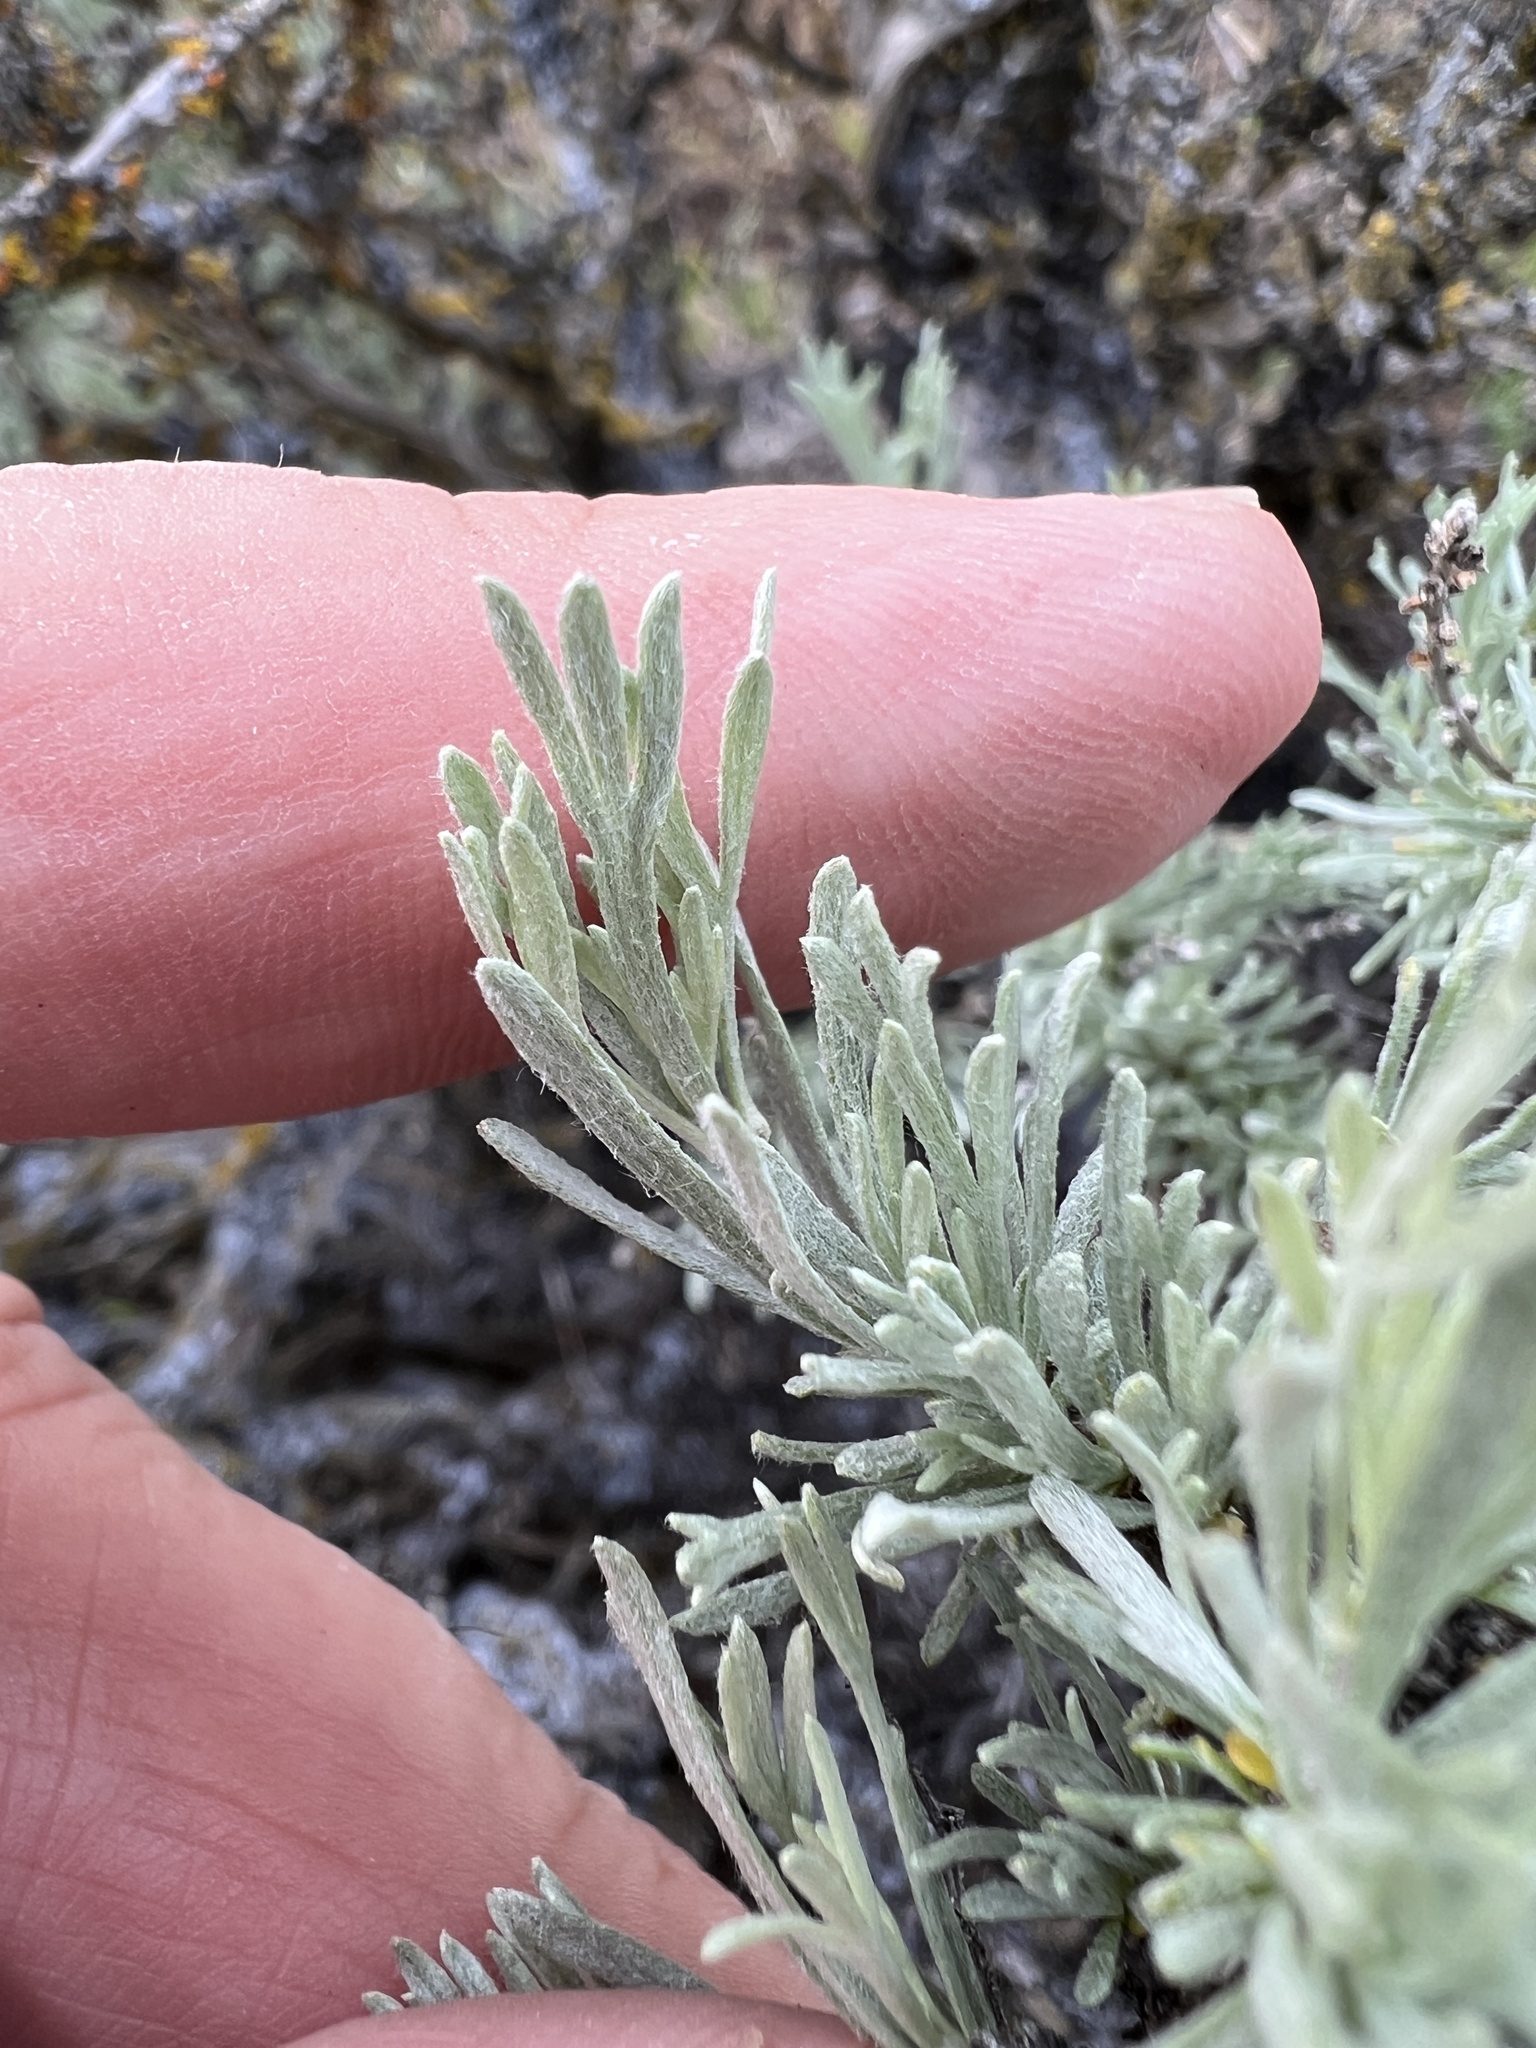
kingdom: Plantae
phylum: Tracheophyta
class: Magnoliopsida
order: Asterales
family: Asteraceae
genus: Artemisia
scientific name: Artemisia rigida
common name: Scabland sagebrush
